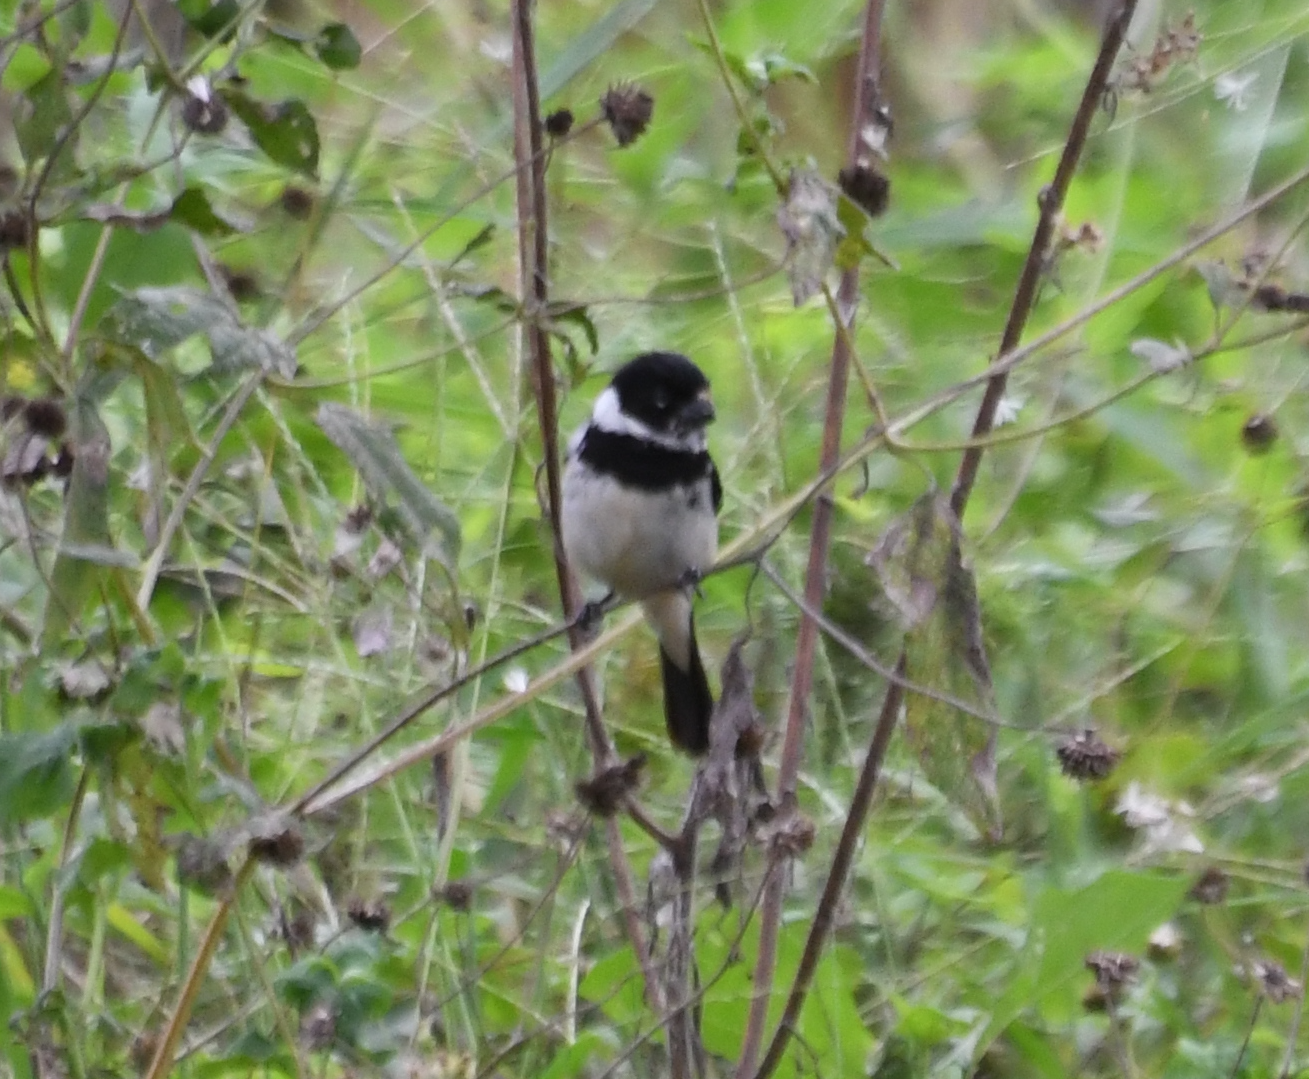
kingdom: Animalia
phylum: Chordata
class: Aves
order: Passeriformes
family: Thraupidae
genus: Sporophila
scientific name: Sporophila morelleti
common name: Morelet's seedeater
